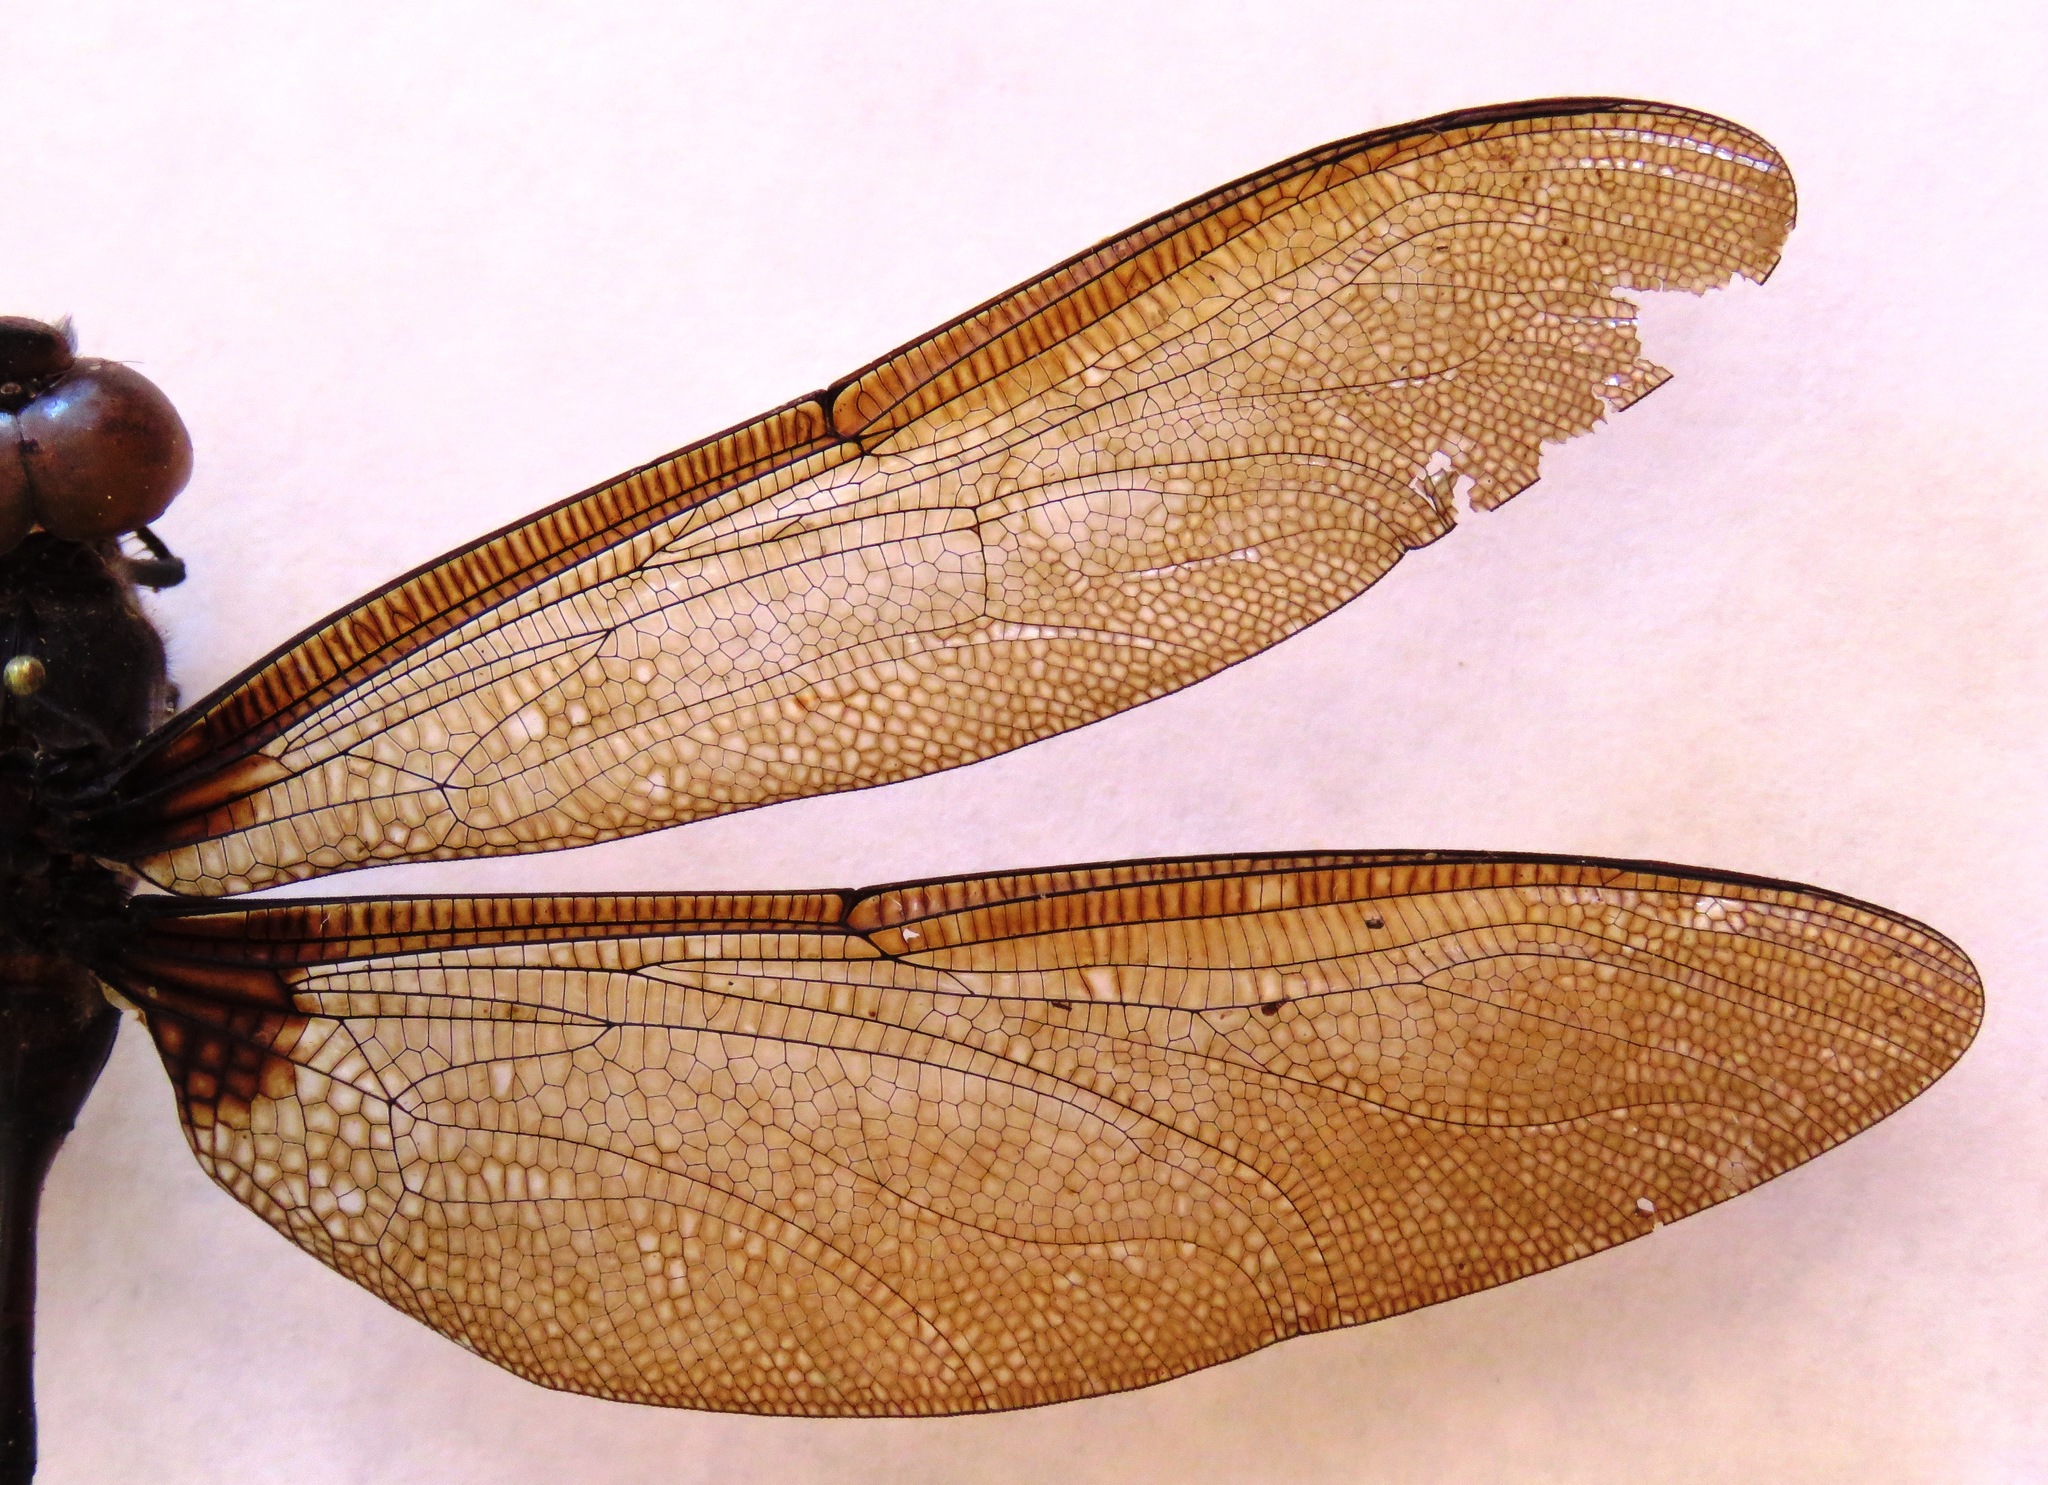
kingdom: Animalia
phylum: Arthropoda
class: Insecta
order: Odonata
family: Aeshnidae
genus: Gynacantha
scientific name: Gynacantha membranalis
